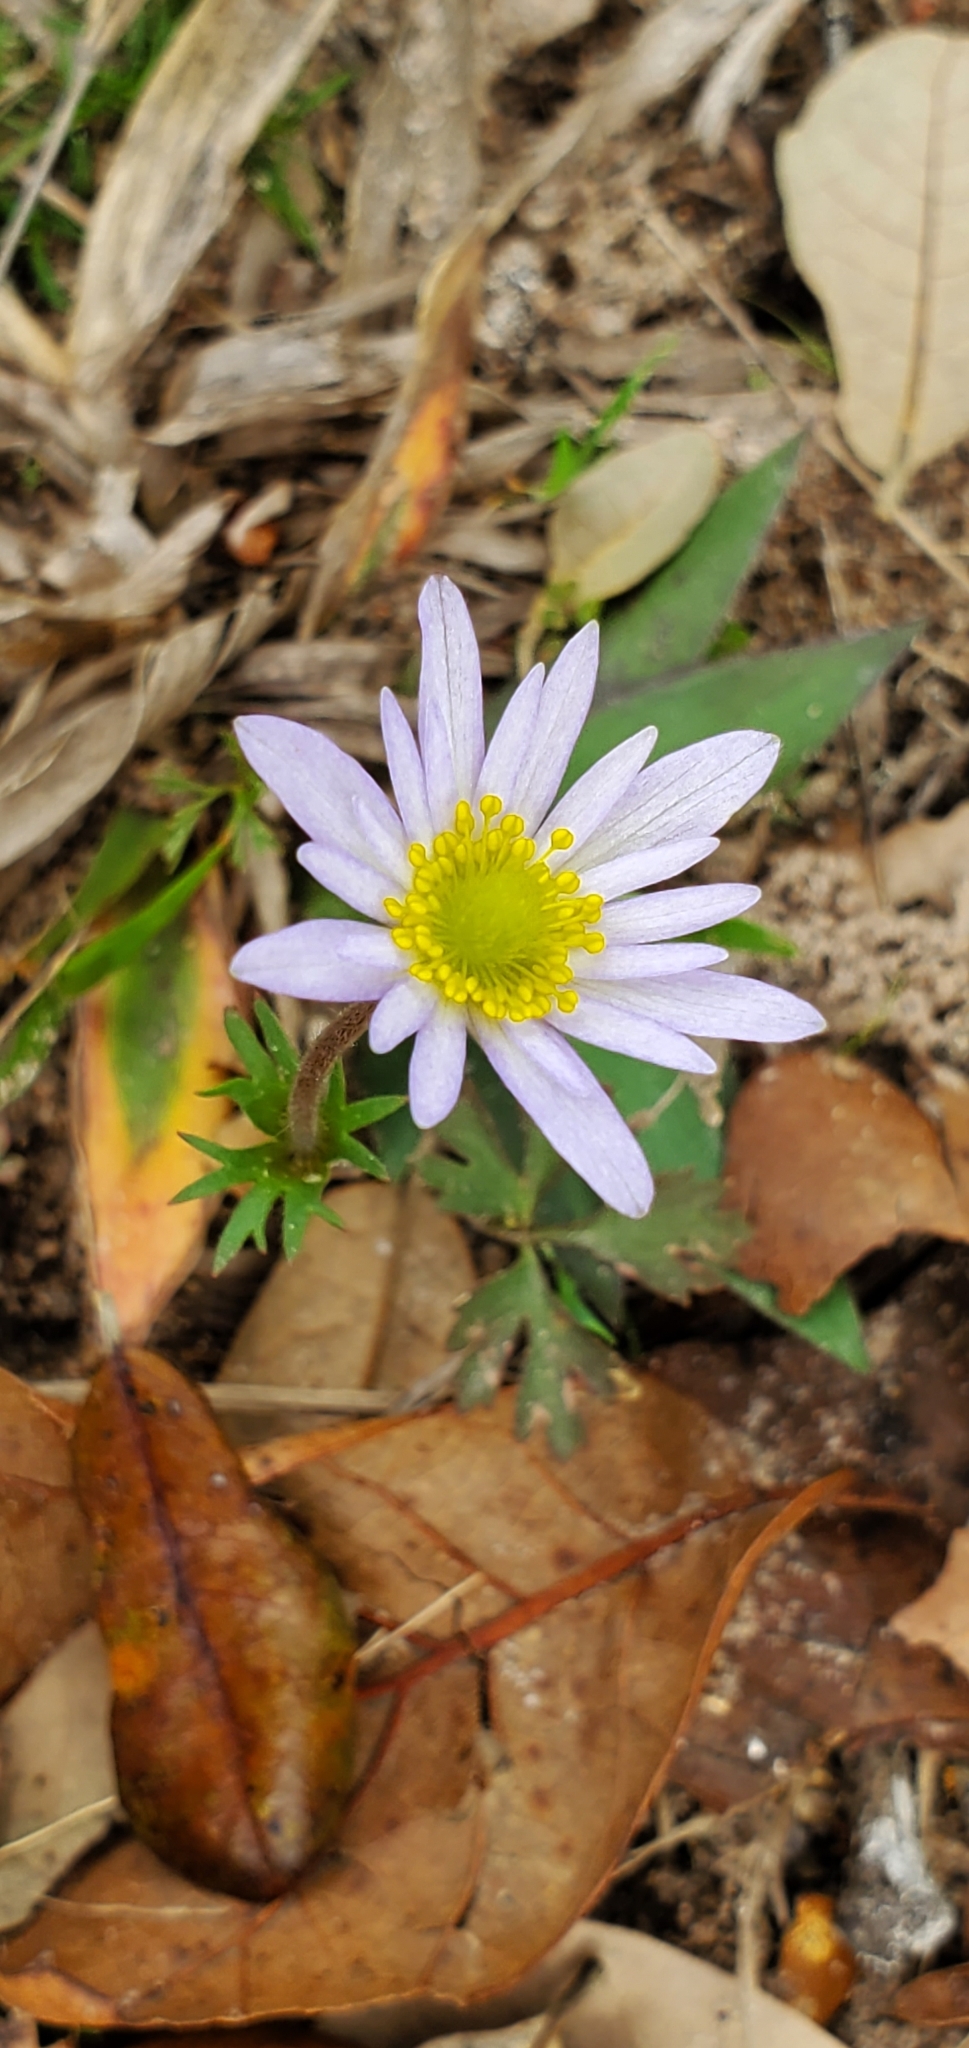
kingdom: Plantae
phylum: Tracheophyta
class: Magnoliopsida
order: Ranunculales
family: Ranunculaceae
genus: Anemone
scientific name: Anemone caroliniana
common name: Carolina anemone
